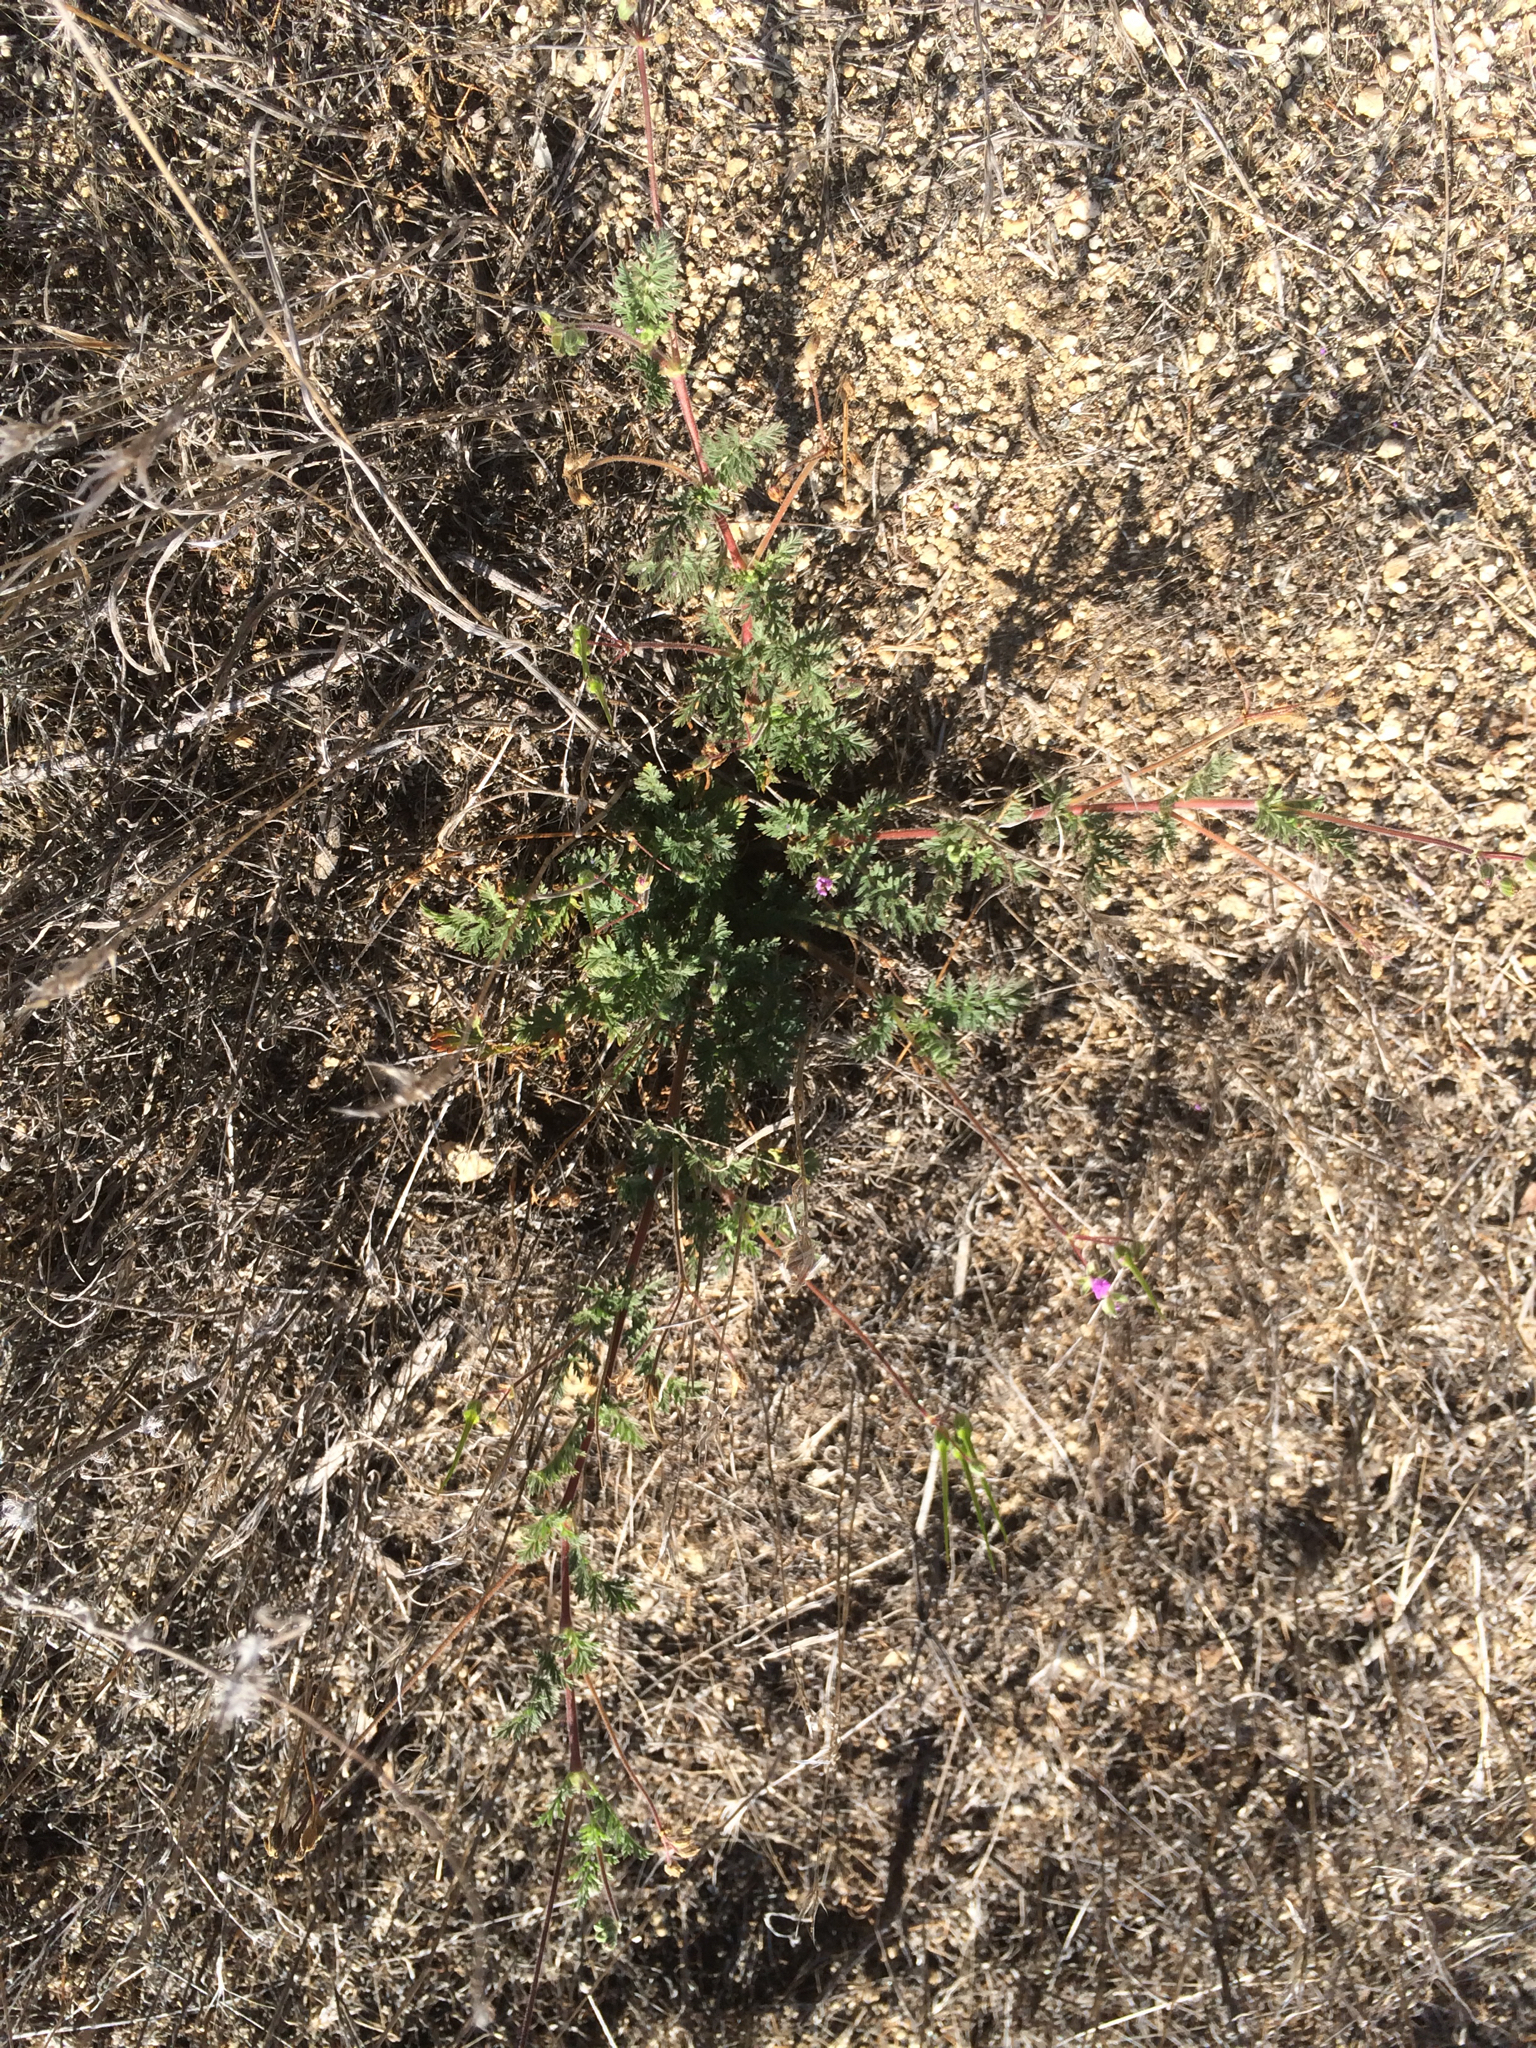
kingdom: Plantae
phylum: Tracheophyta
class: Magnoliopsida
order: Geraniales
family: Geraniaceae
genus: Erodium
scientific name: Erodium cicutarium
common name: Common stork's-bill
